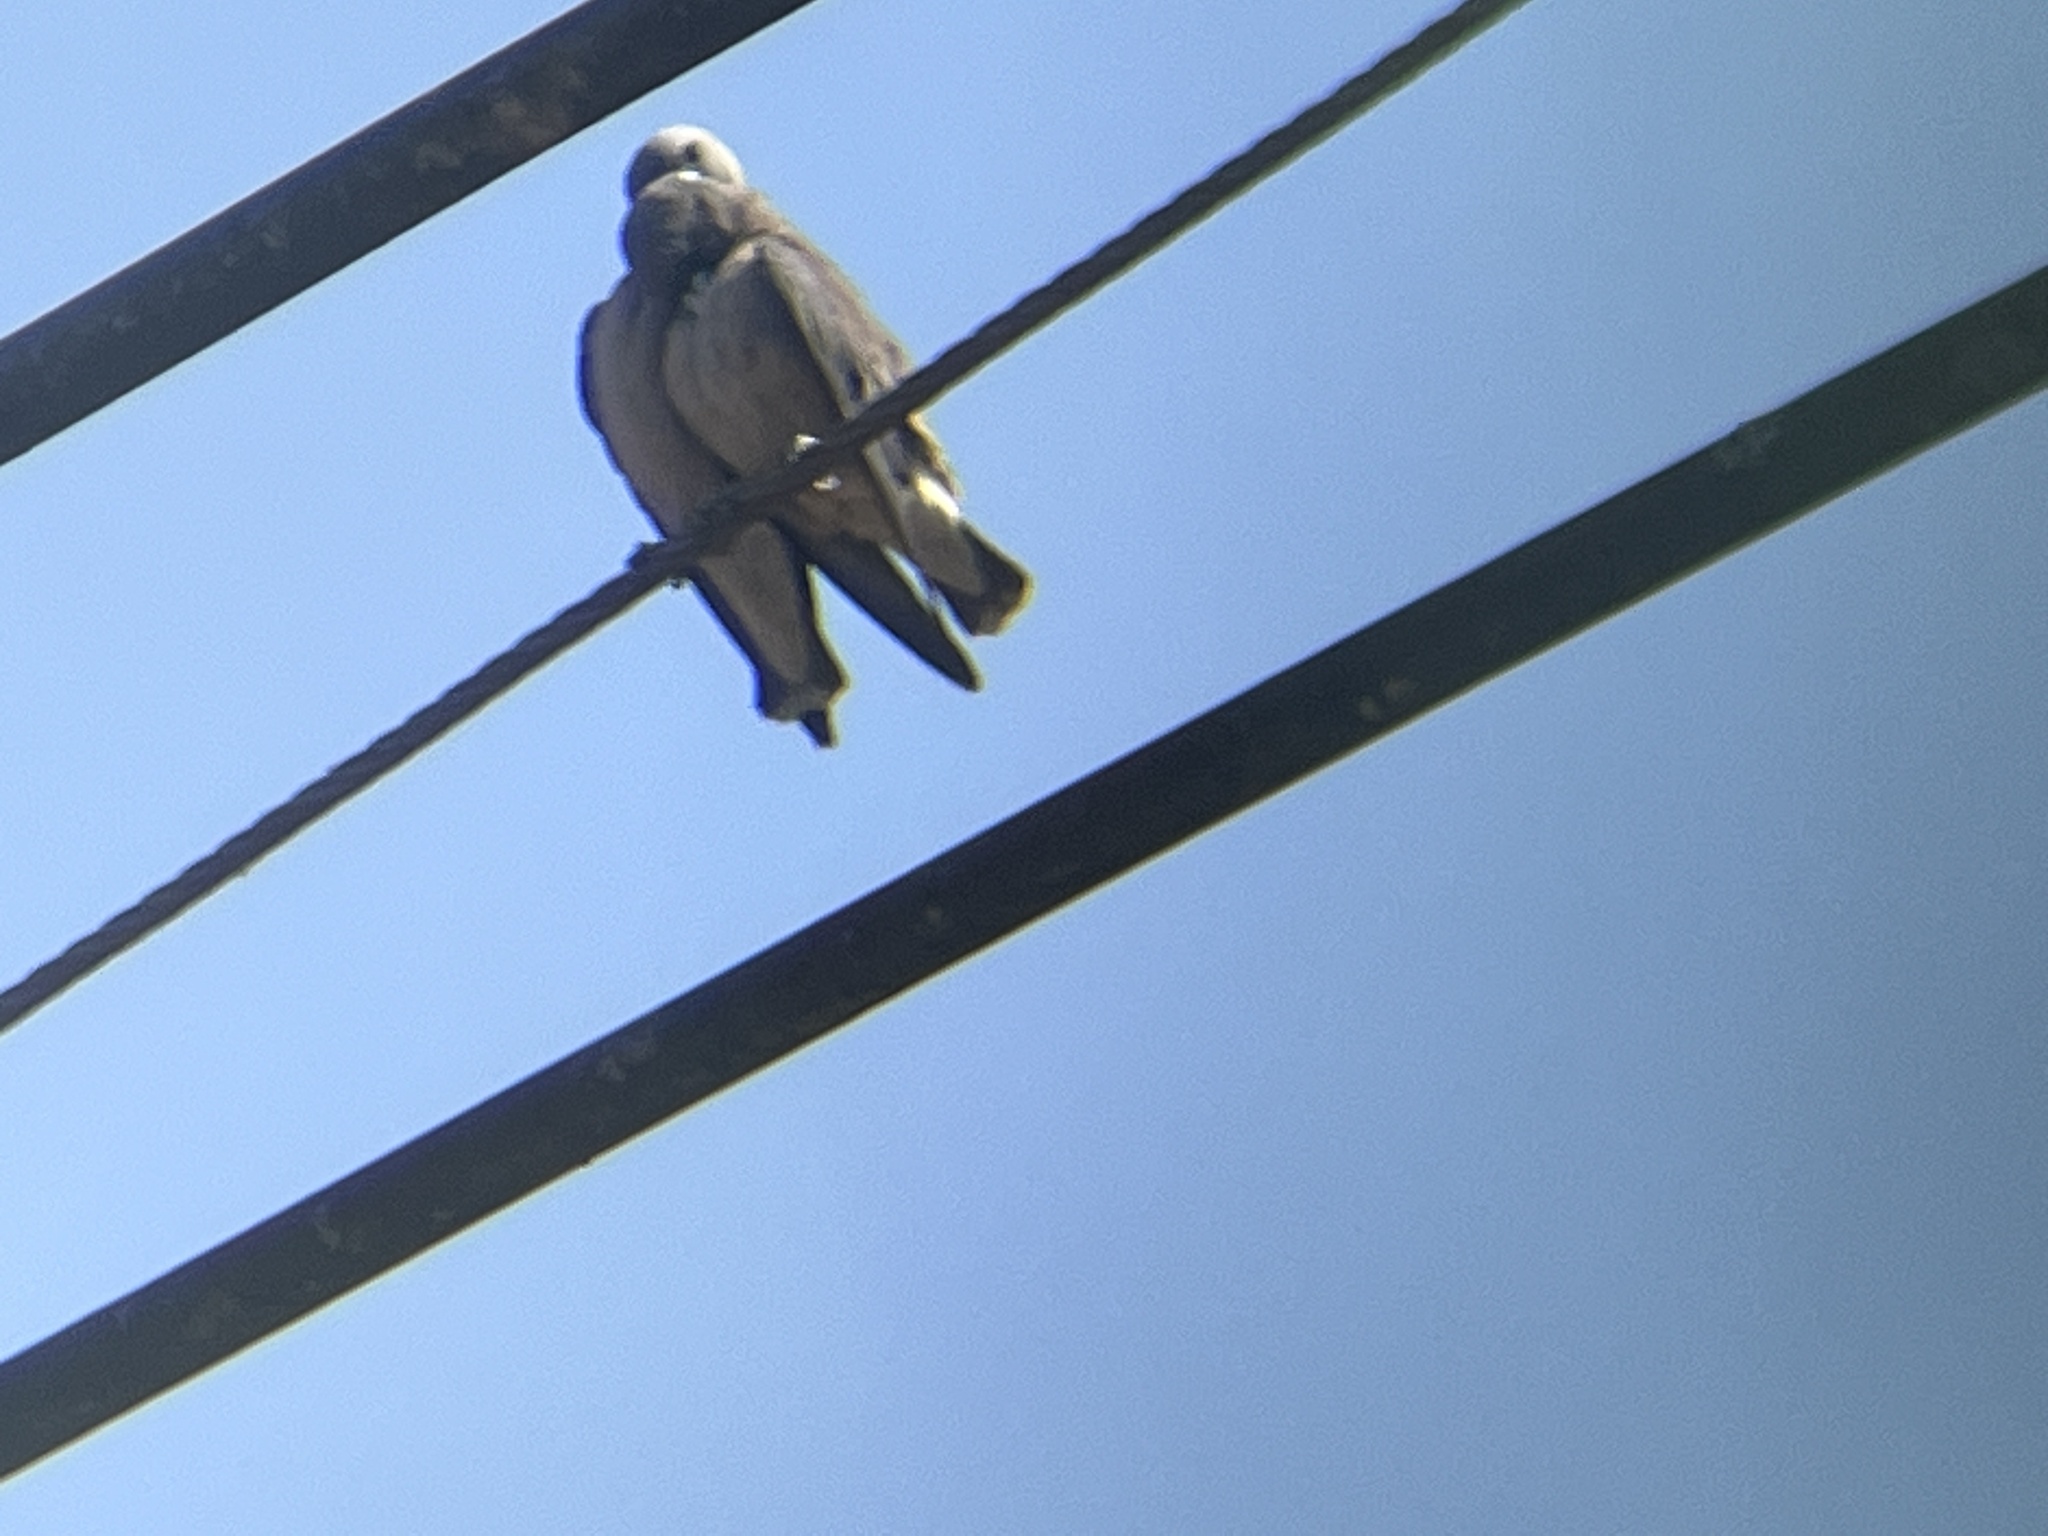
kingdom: Animalia
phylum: Chordata
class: Aves
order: Passeriformes
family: Artamidae
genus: Artamus
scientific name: Artamus fuscus
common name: Ashy woodswallow
